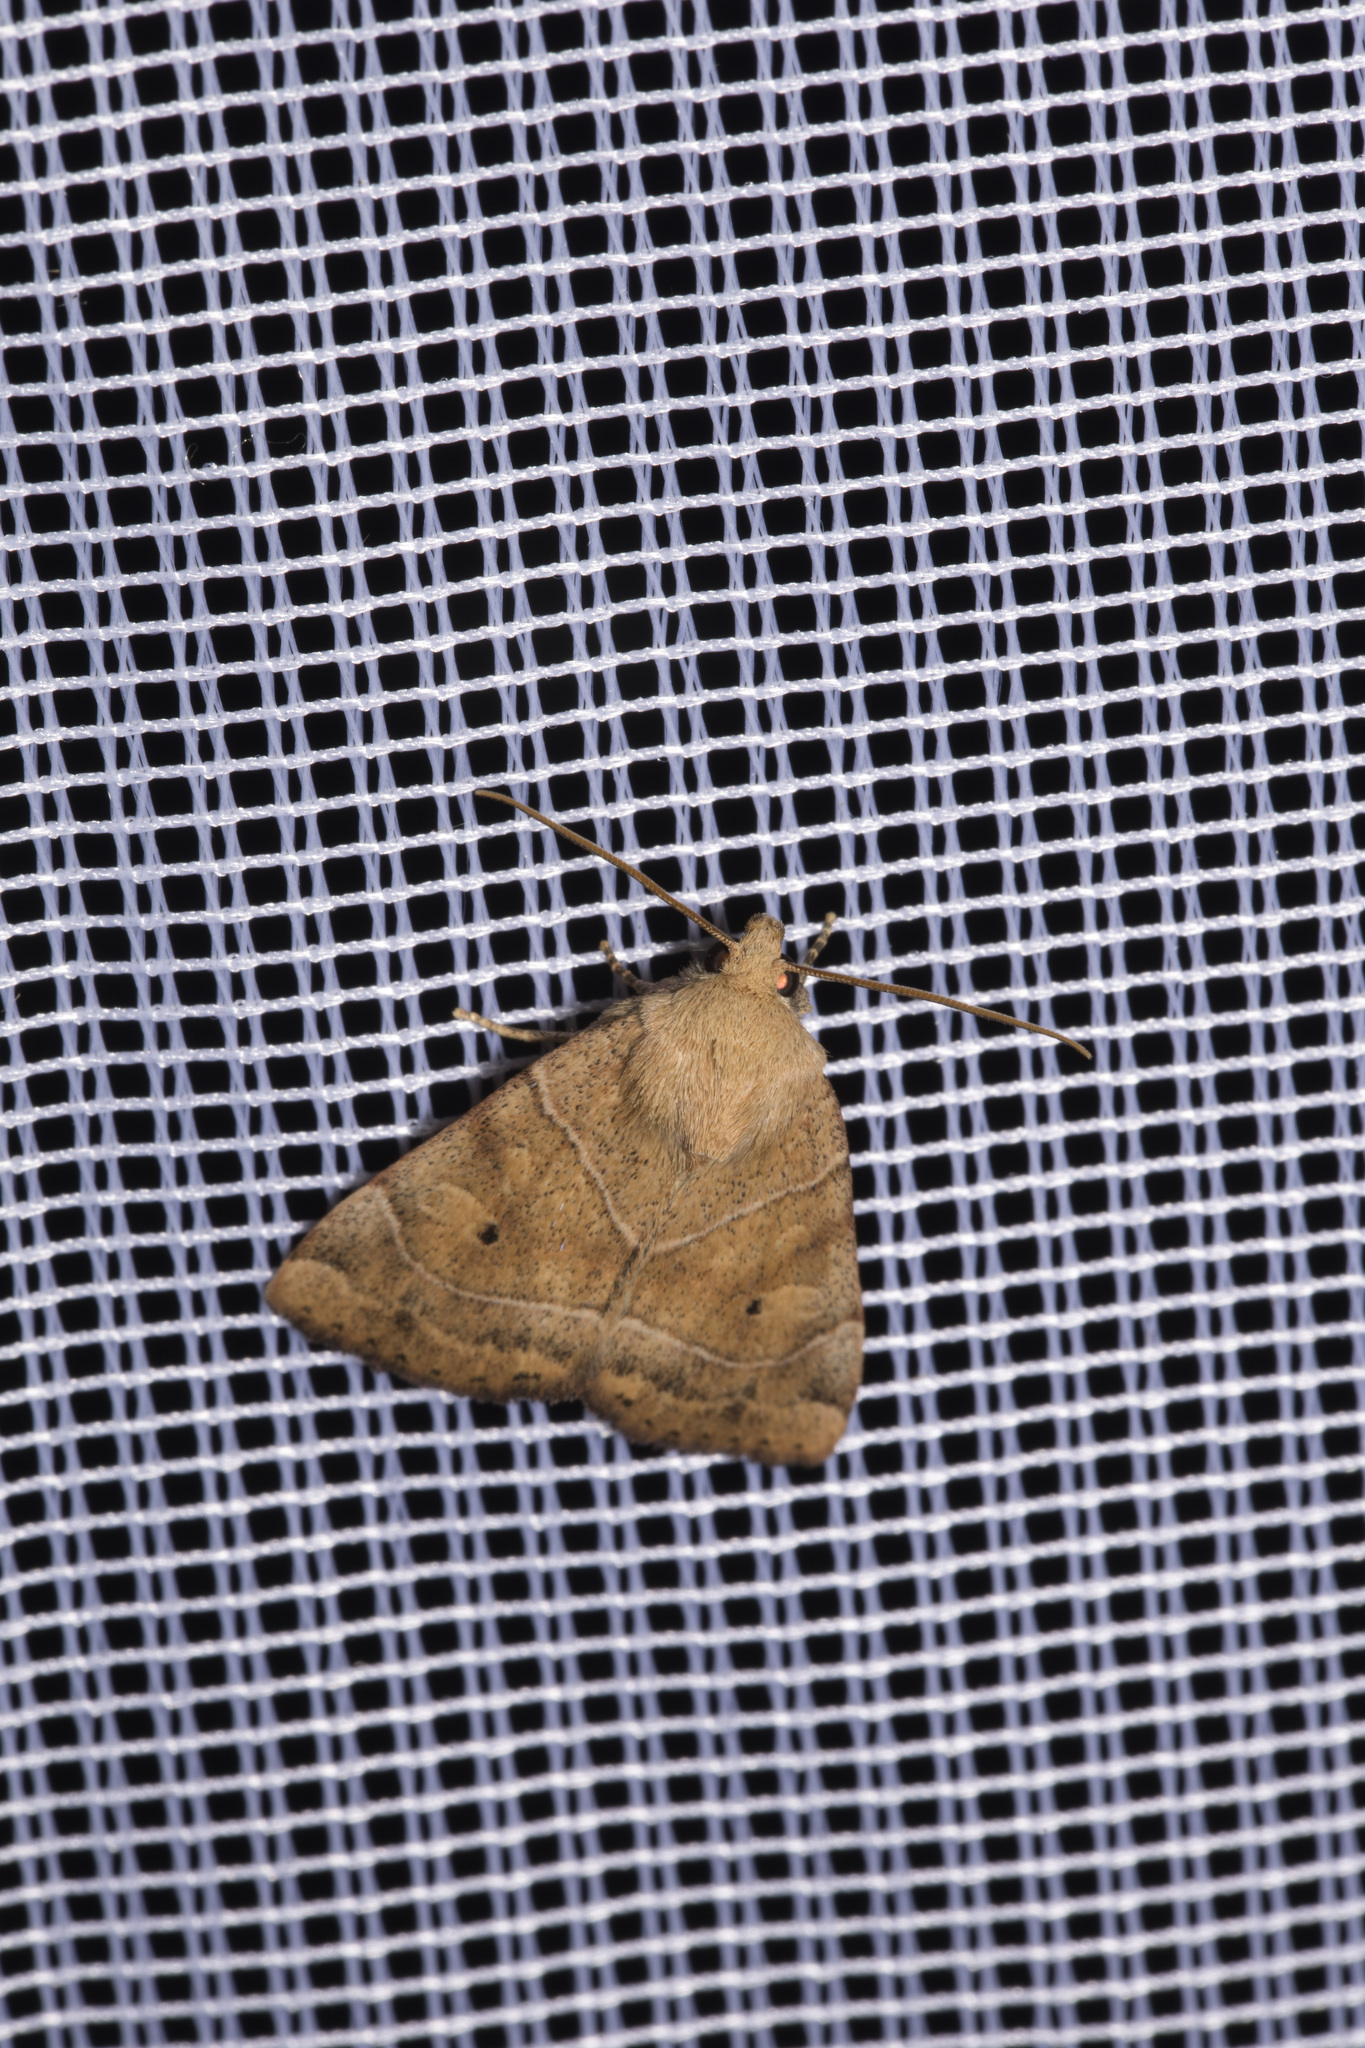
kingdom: Animalia
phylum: Arthropoda
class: Insecta
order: Lepidoptera
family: Noctuidae
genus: Cosmia
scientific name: Cosmia trapezina
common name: Dun-bar
